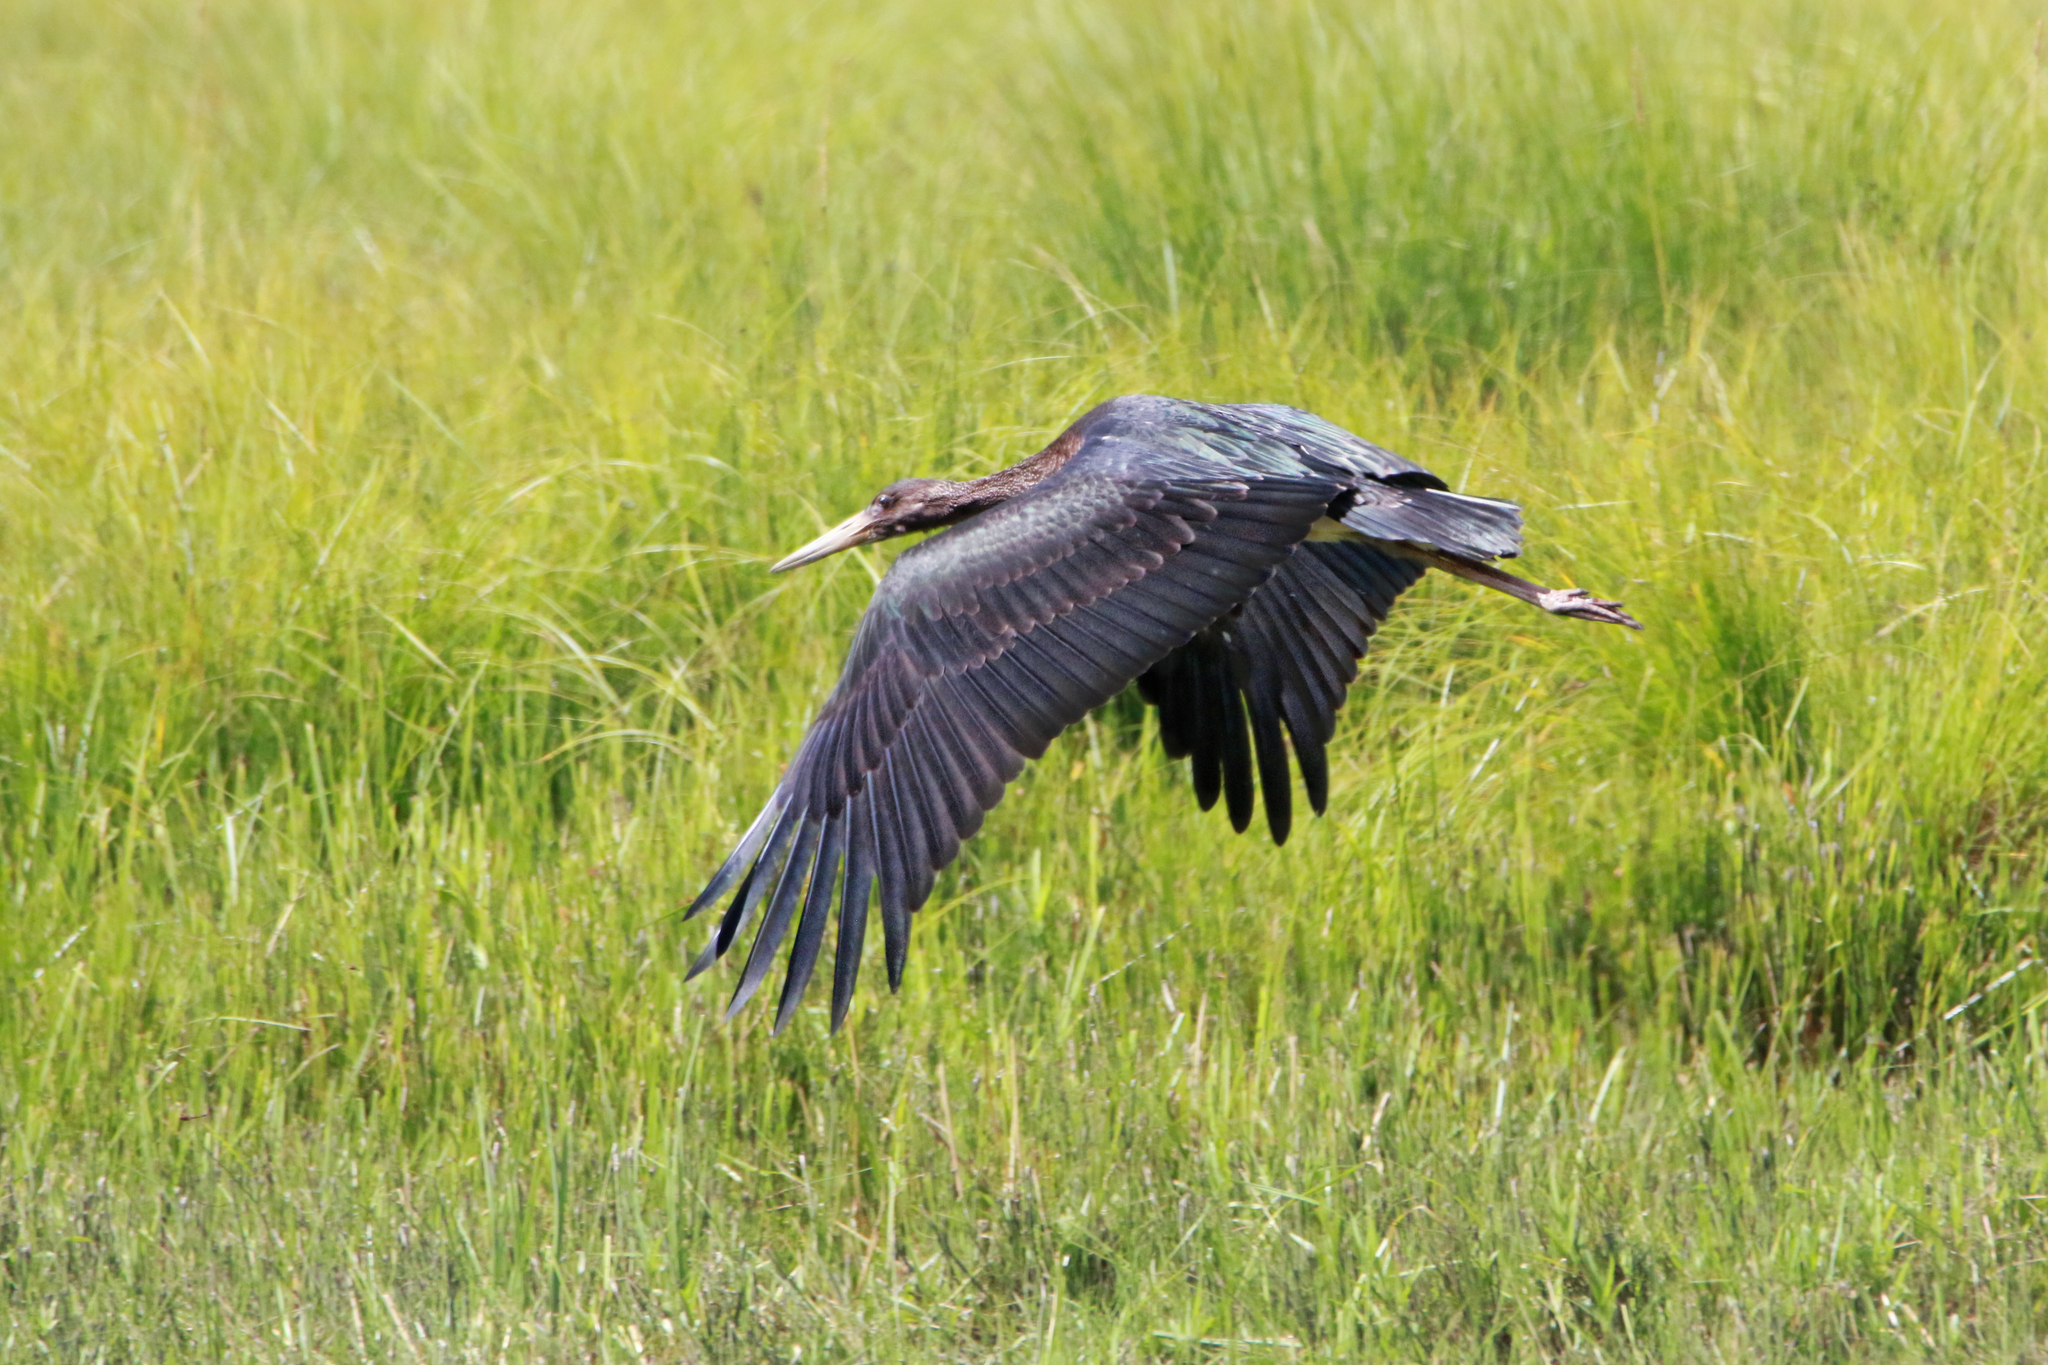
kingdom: Animalia
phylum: Chordata
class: Aves
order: Ciconiiformes
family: Ciconiidae
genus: Ciconia
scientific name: Ciconia nigra
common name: Black stork
